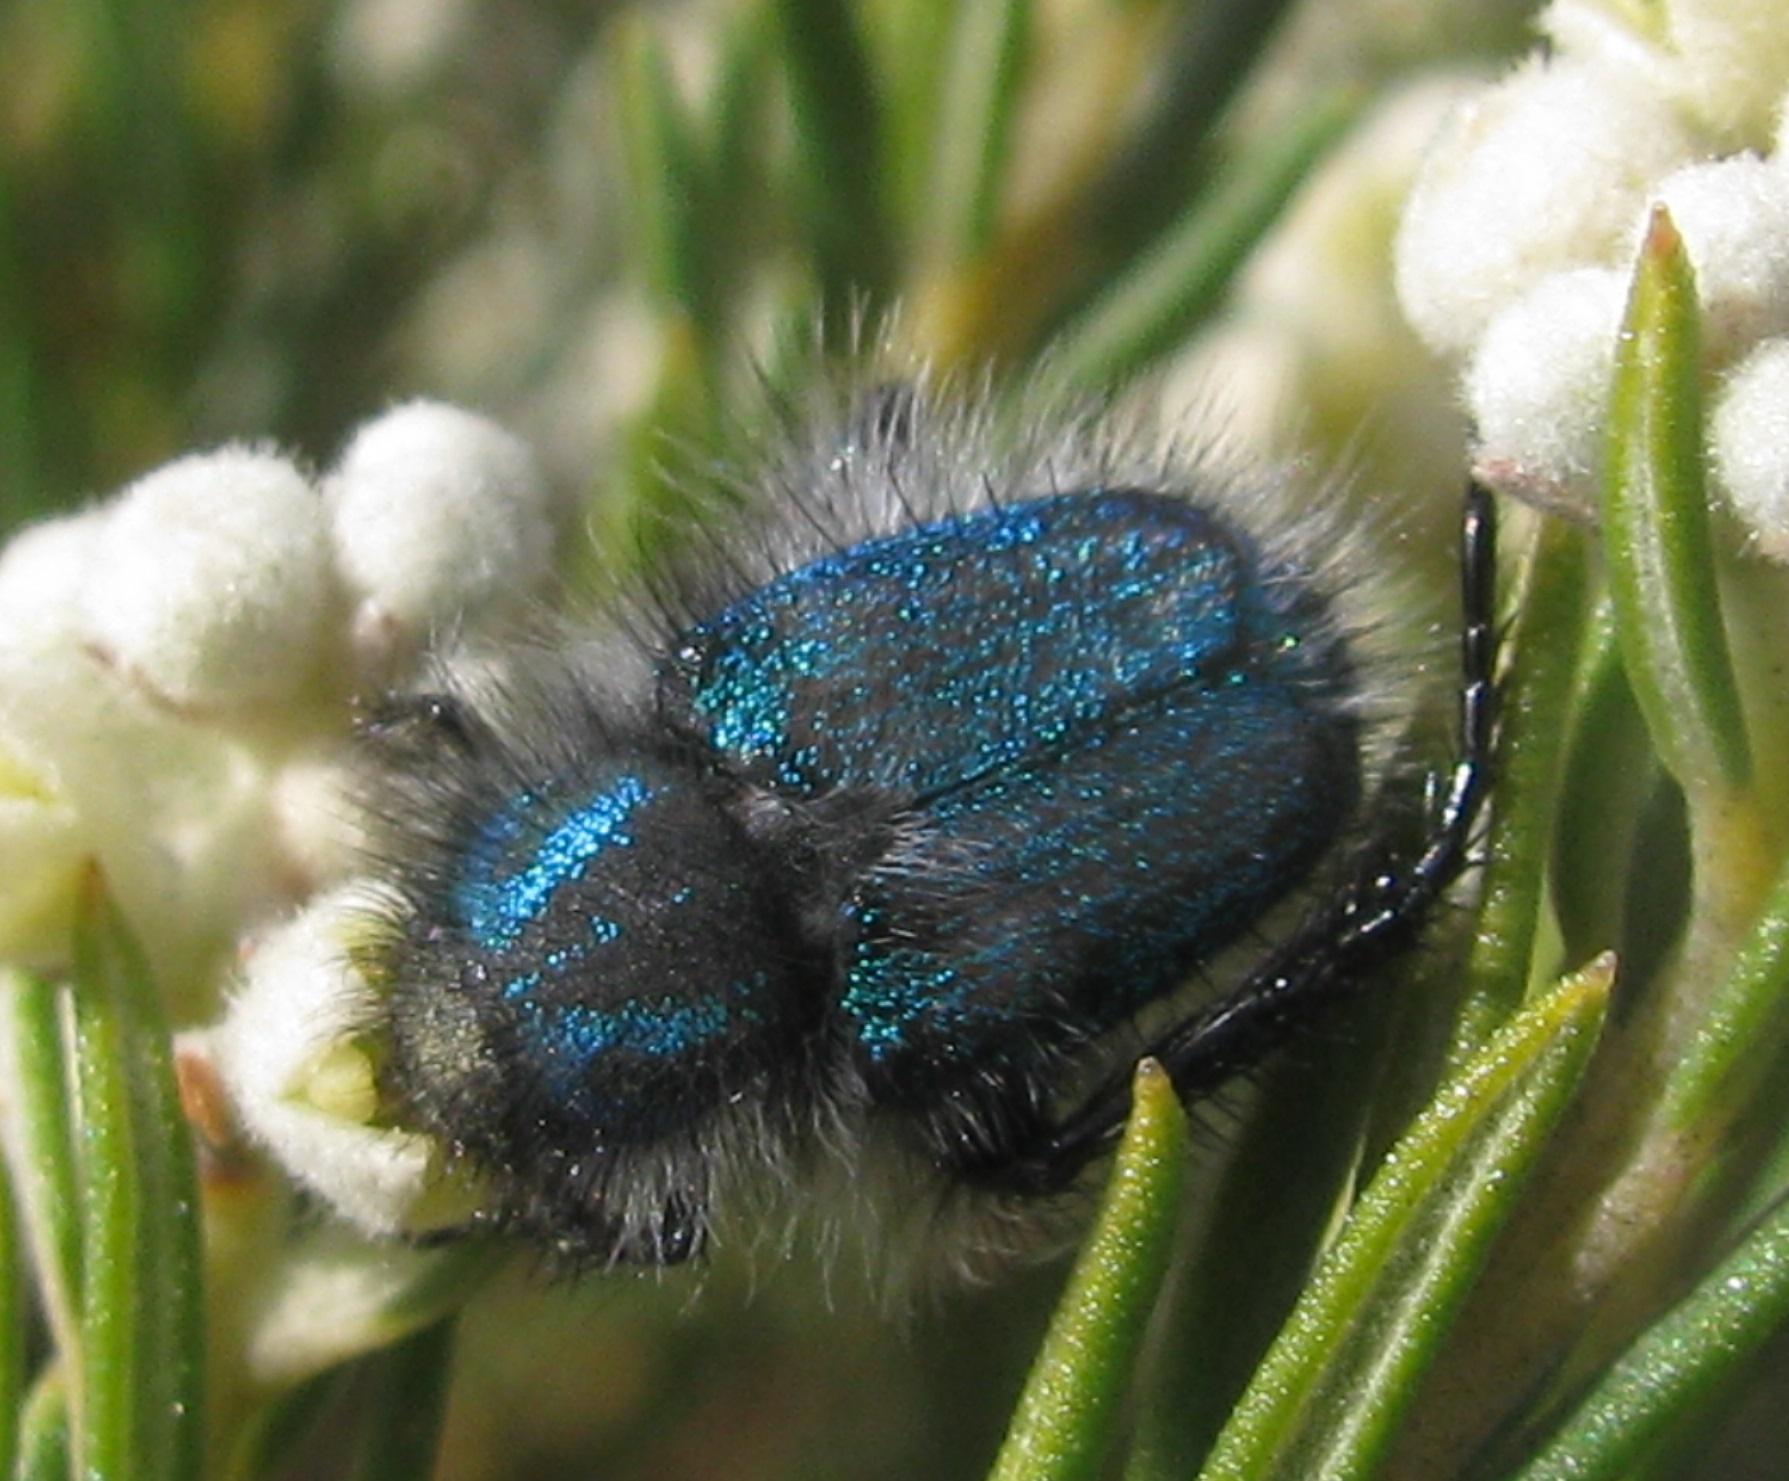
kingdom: Animalia
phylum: Arthropoda
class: Insecta
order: Coleoptera
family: Scarabaeidae
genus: Anisonyx
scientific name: Anisonyx ditus
